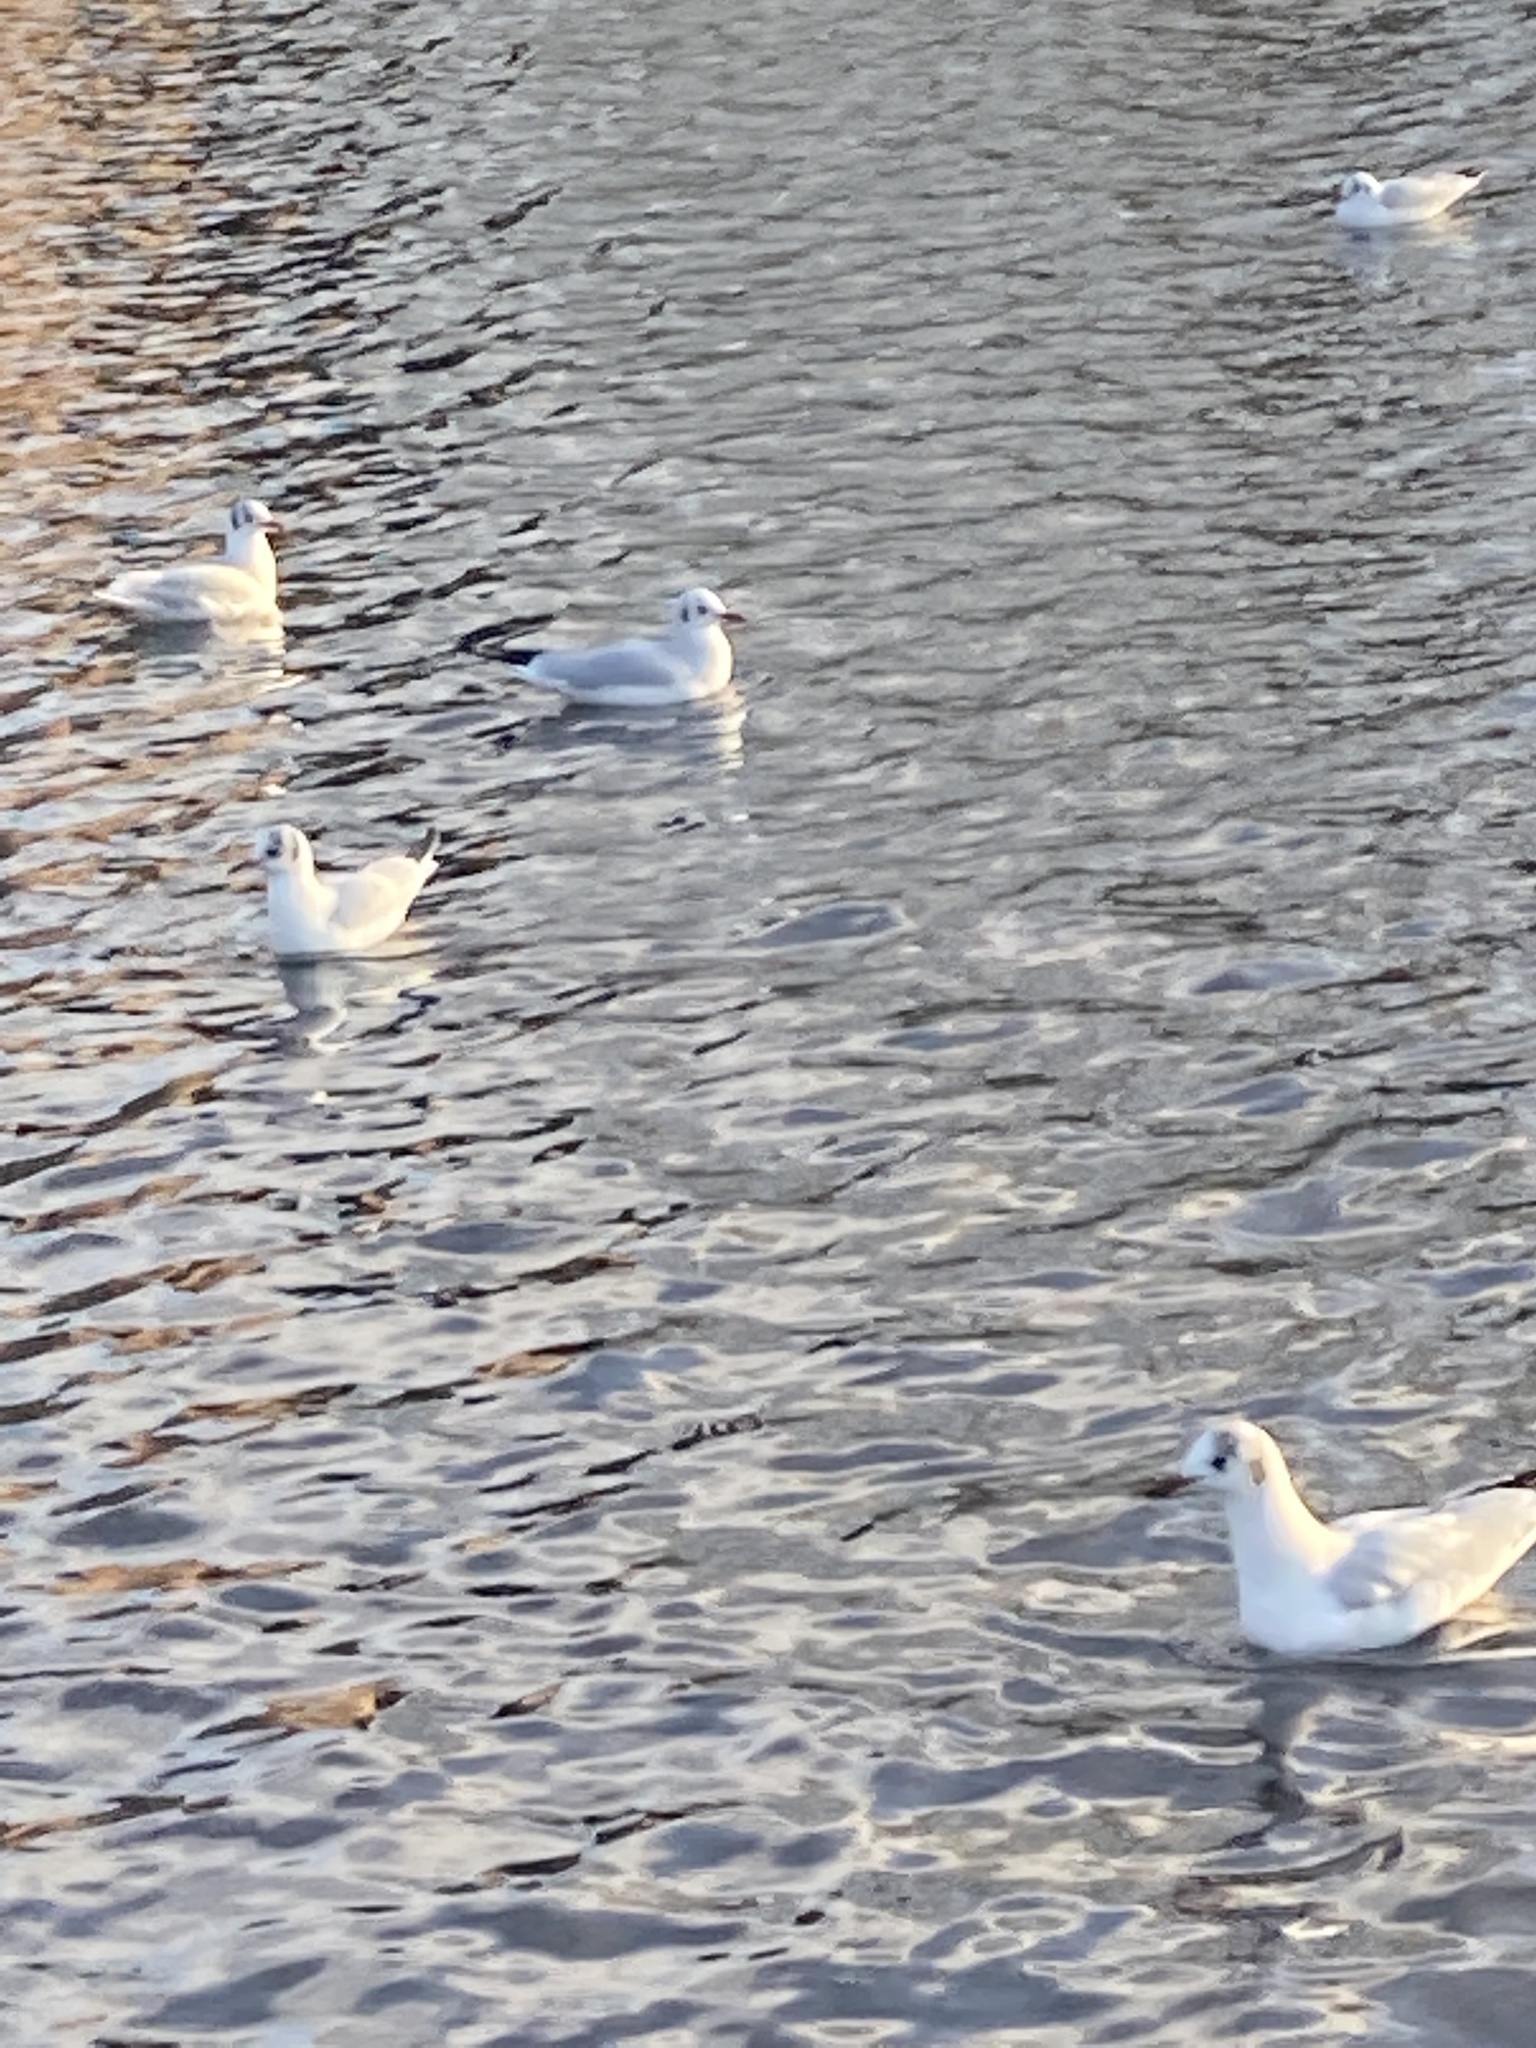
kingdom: Animalia
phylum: Chordata
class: Aves
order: Charadriiformes
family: Laridae
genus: Chroicocephalus
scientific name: Chroicocephalus ridibundus
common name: Black-headed gull
